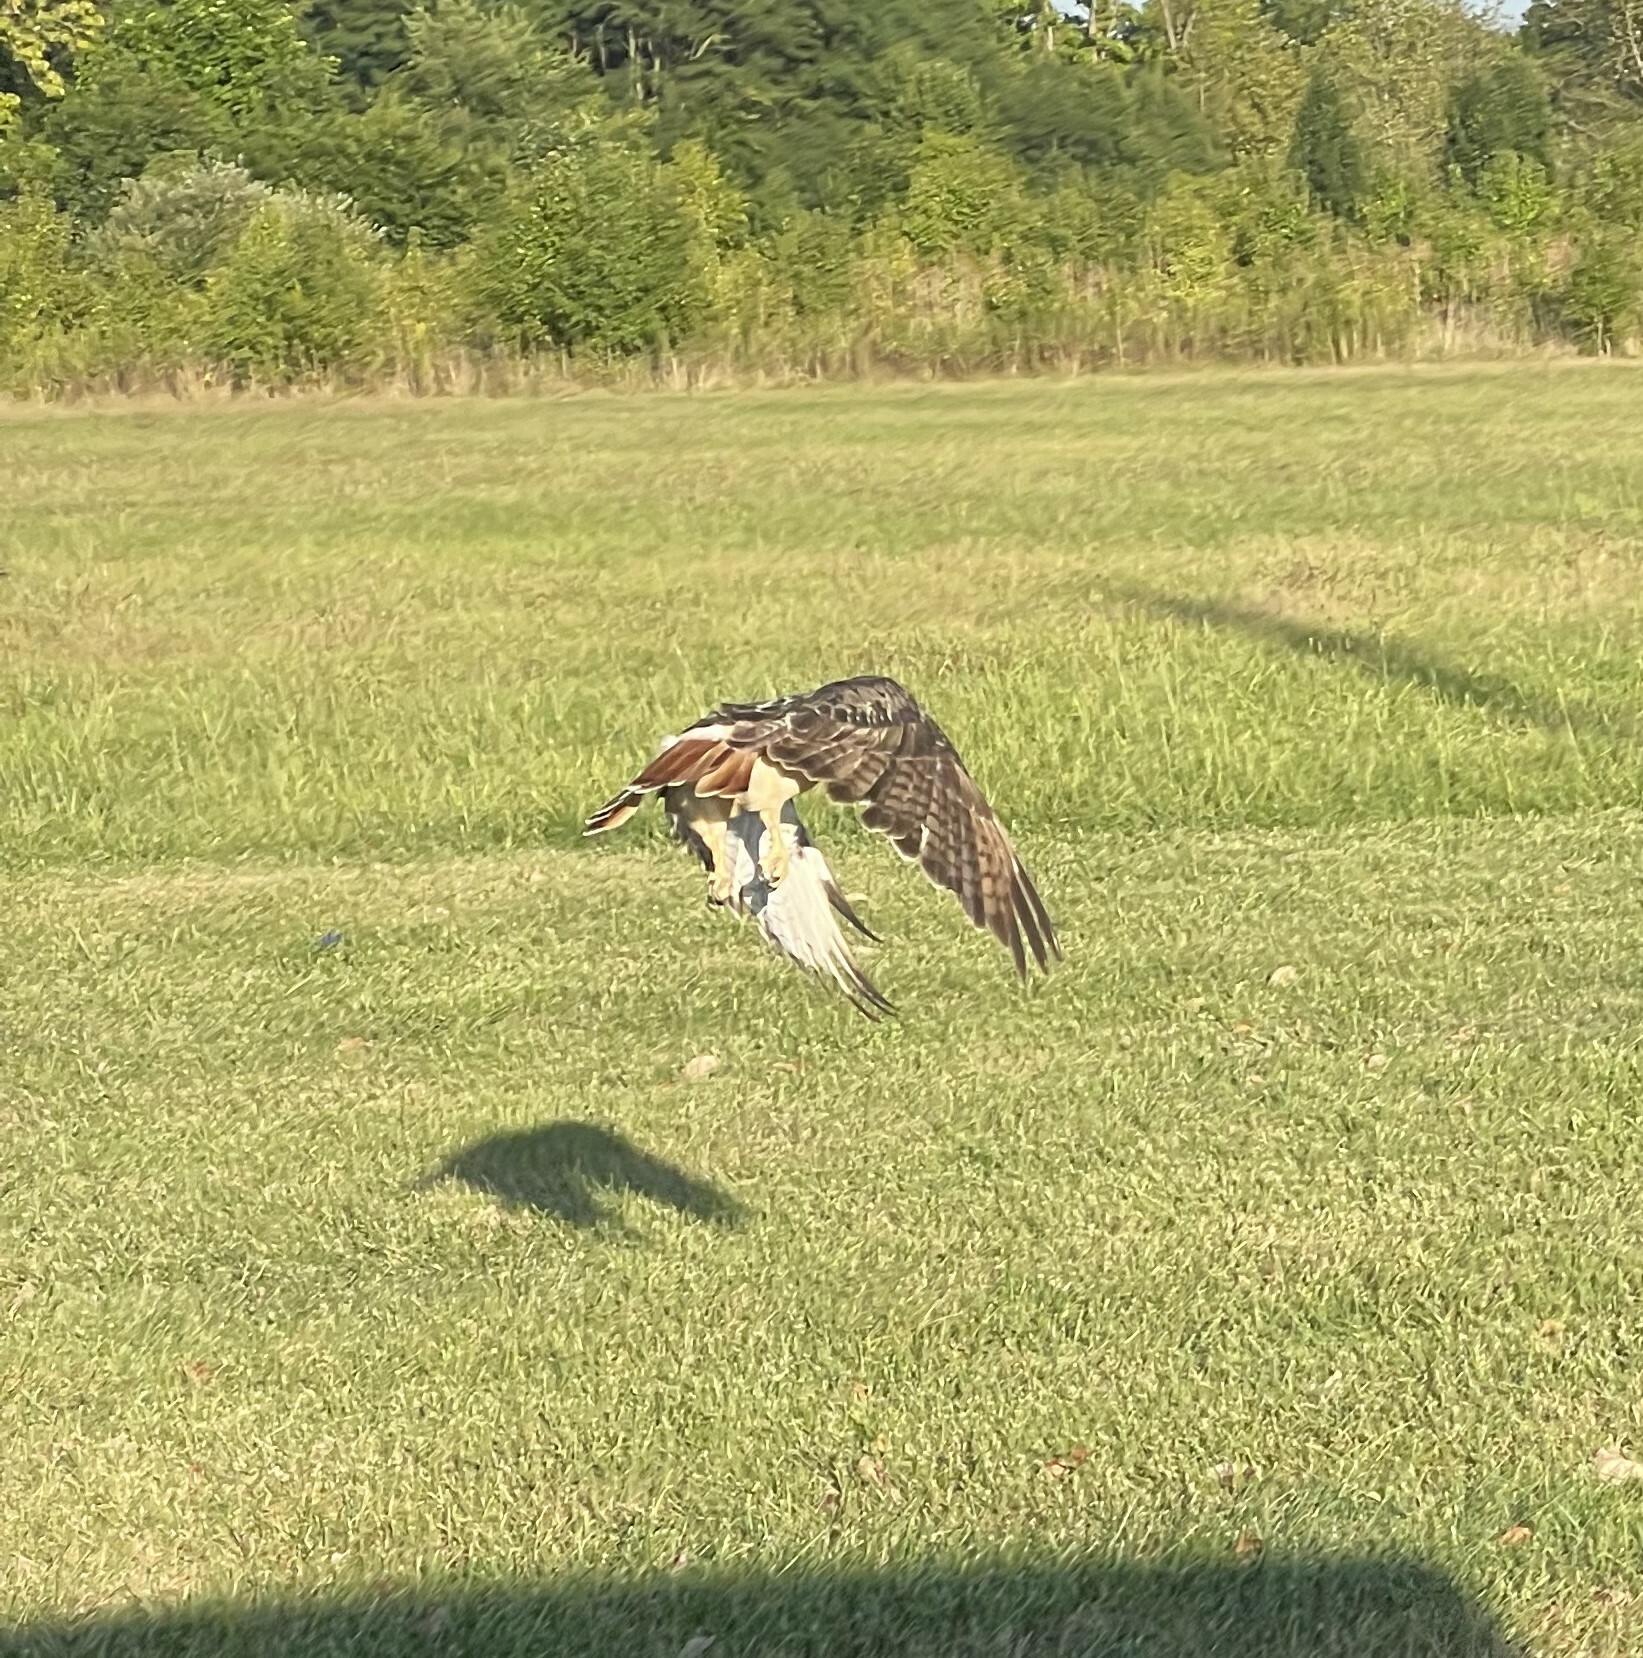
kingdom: Animalia
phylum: Chordata
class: Aves
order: Accipitriformes
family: Accipitridae
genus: Buteo
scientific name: Buteo jamaicensis
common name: Red-tailed hawk
